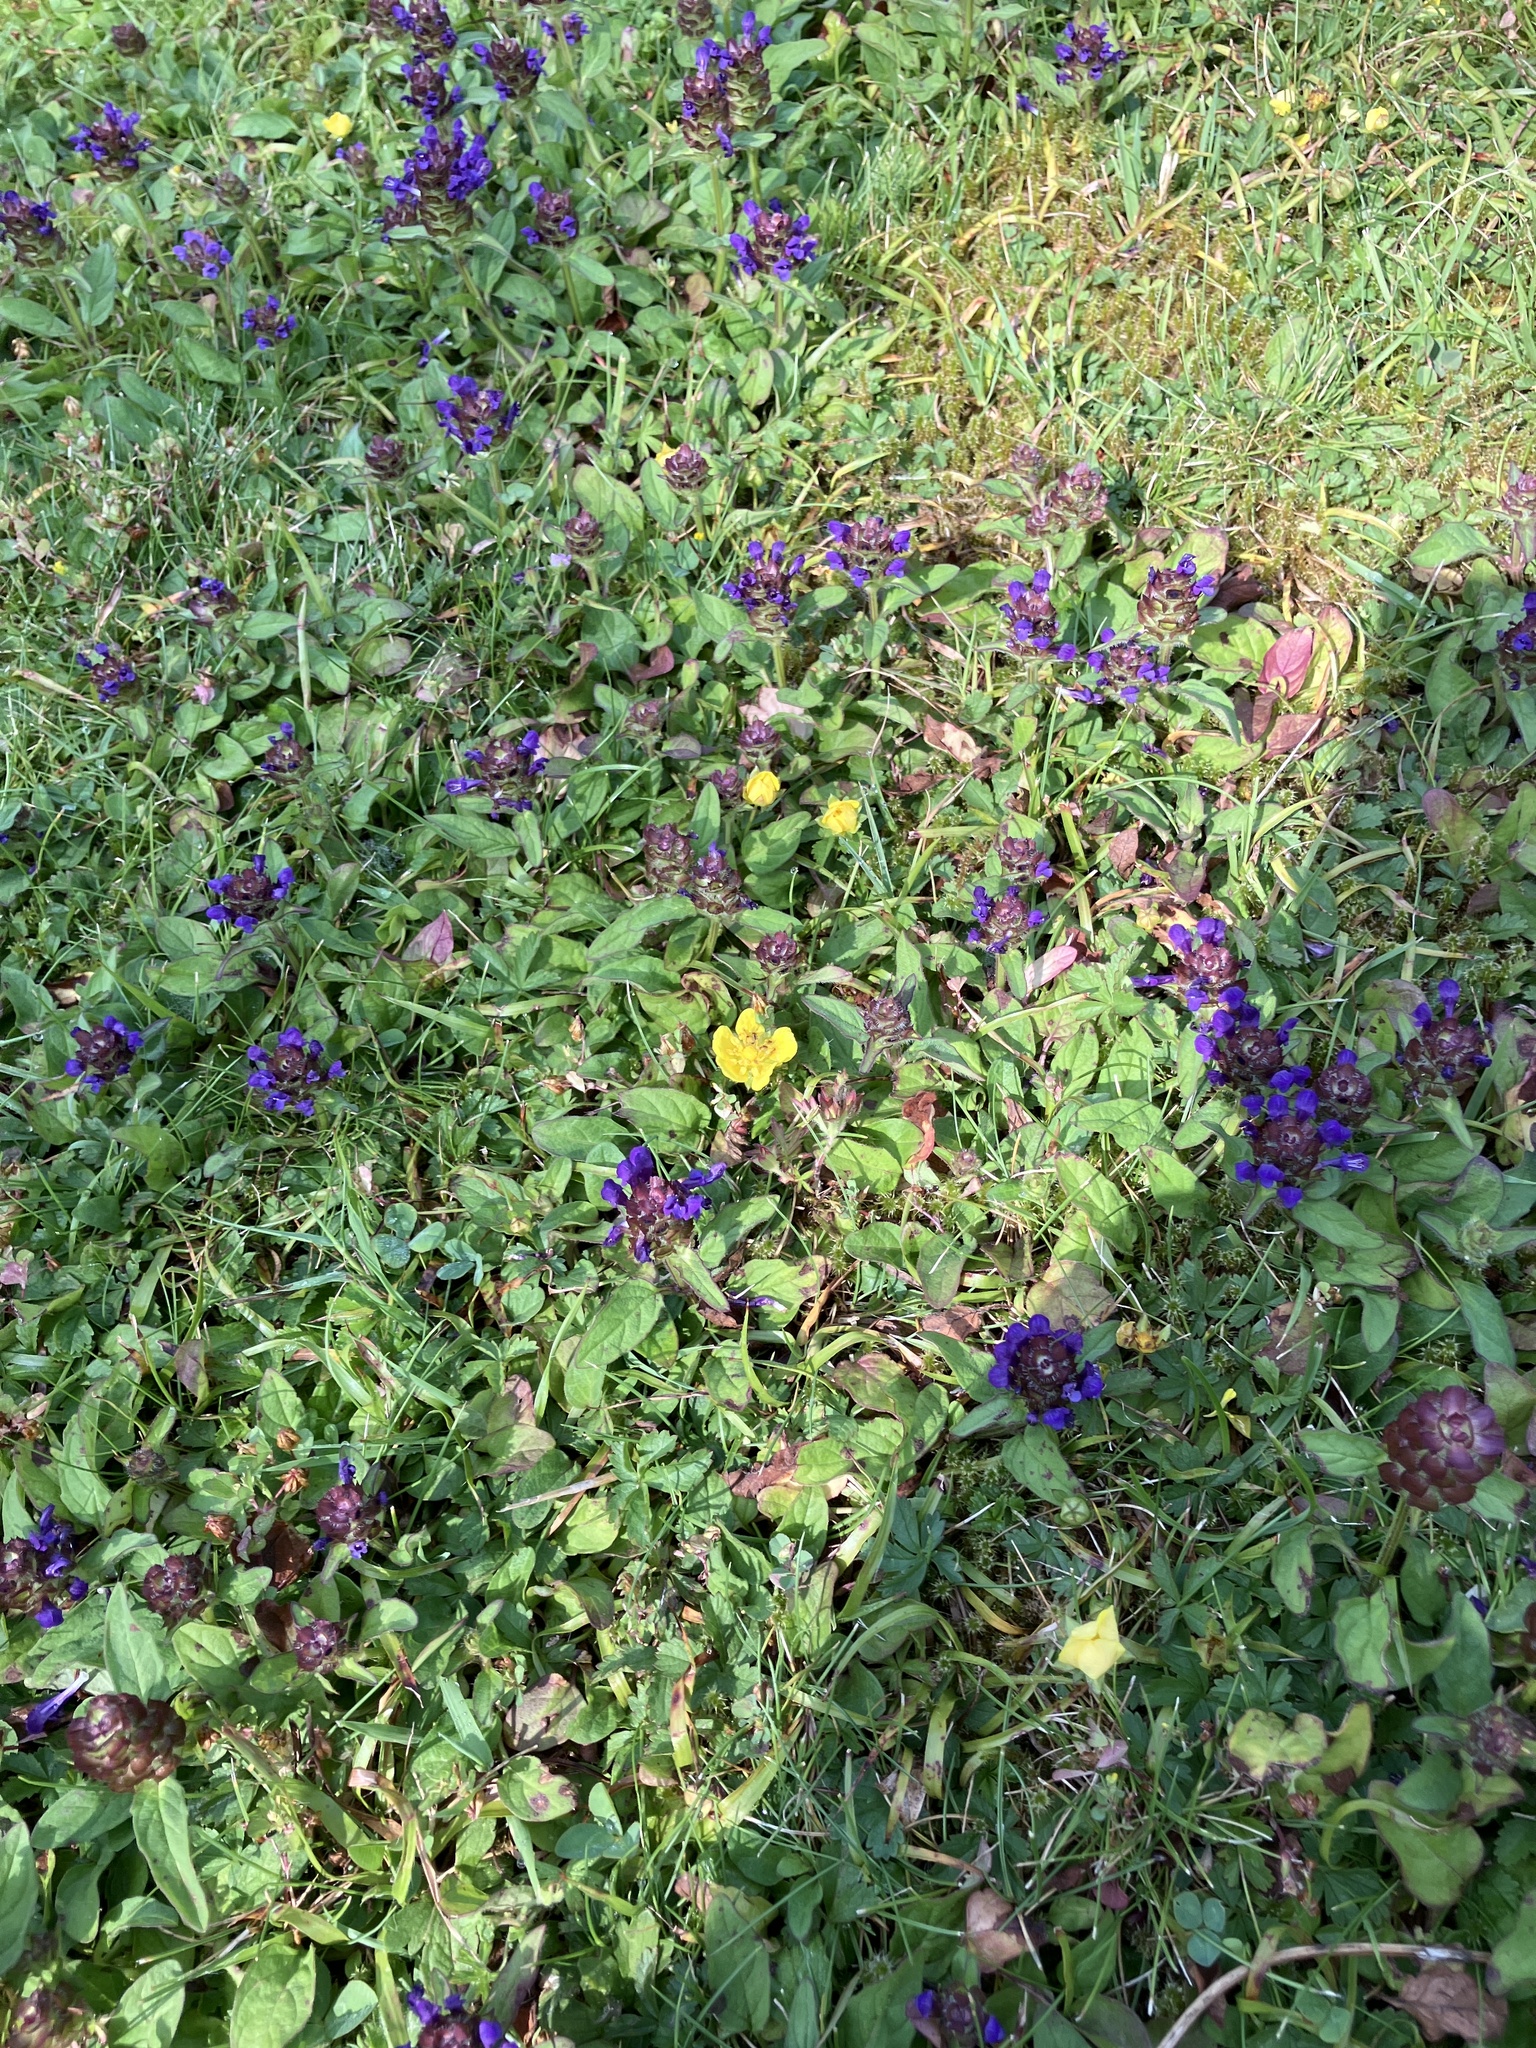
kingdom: Plantae
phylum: Tracheophyta
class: Magnoliopsida
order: Lamiales
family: Lamiaceae
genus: Prunella
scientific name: Prunella vulgaris
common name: Heal-all
